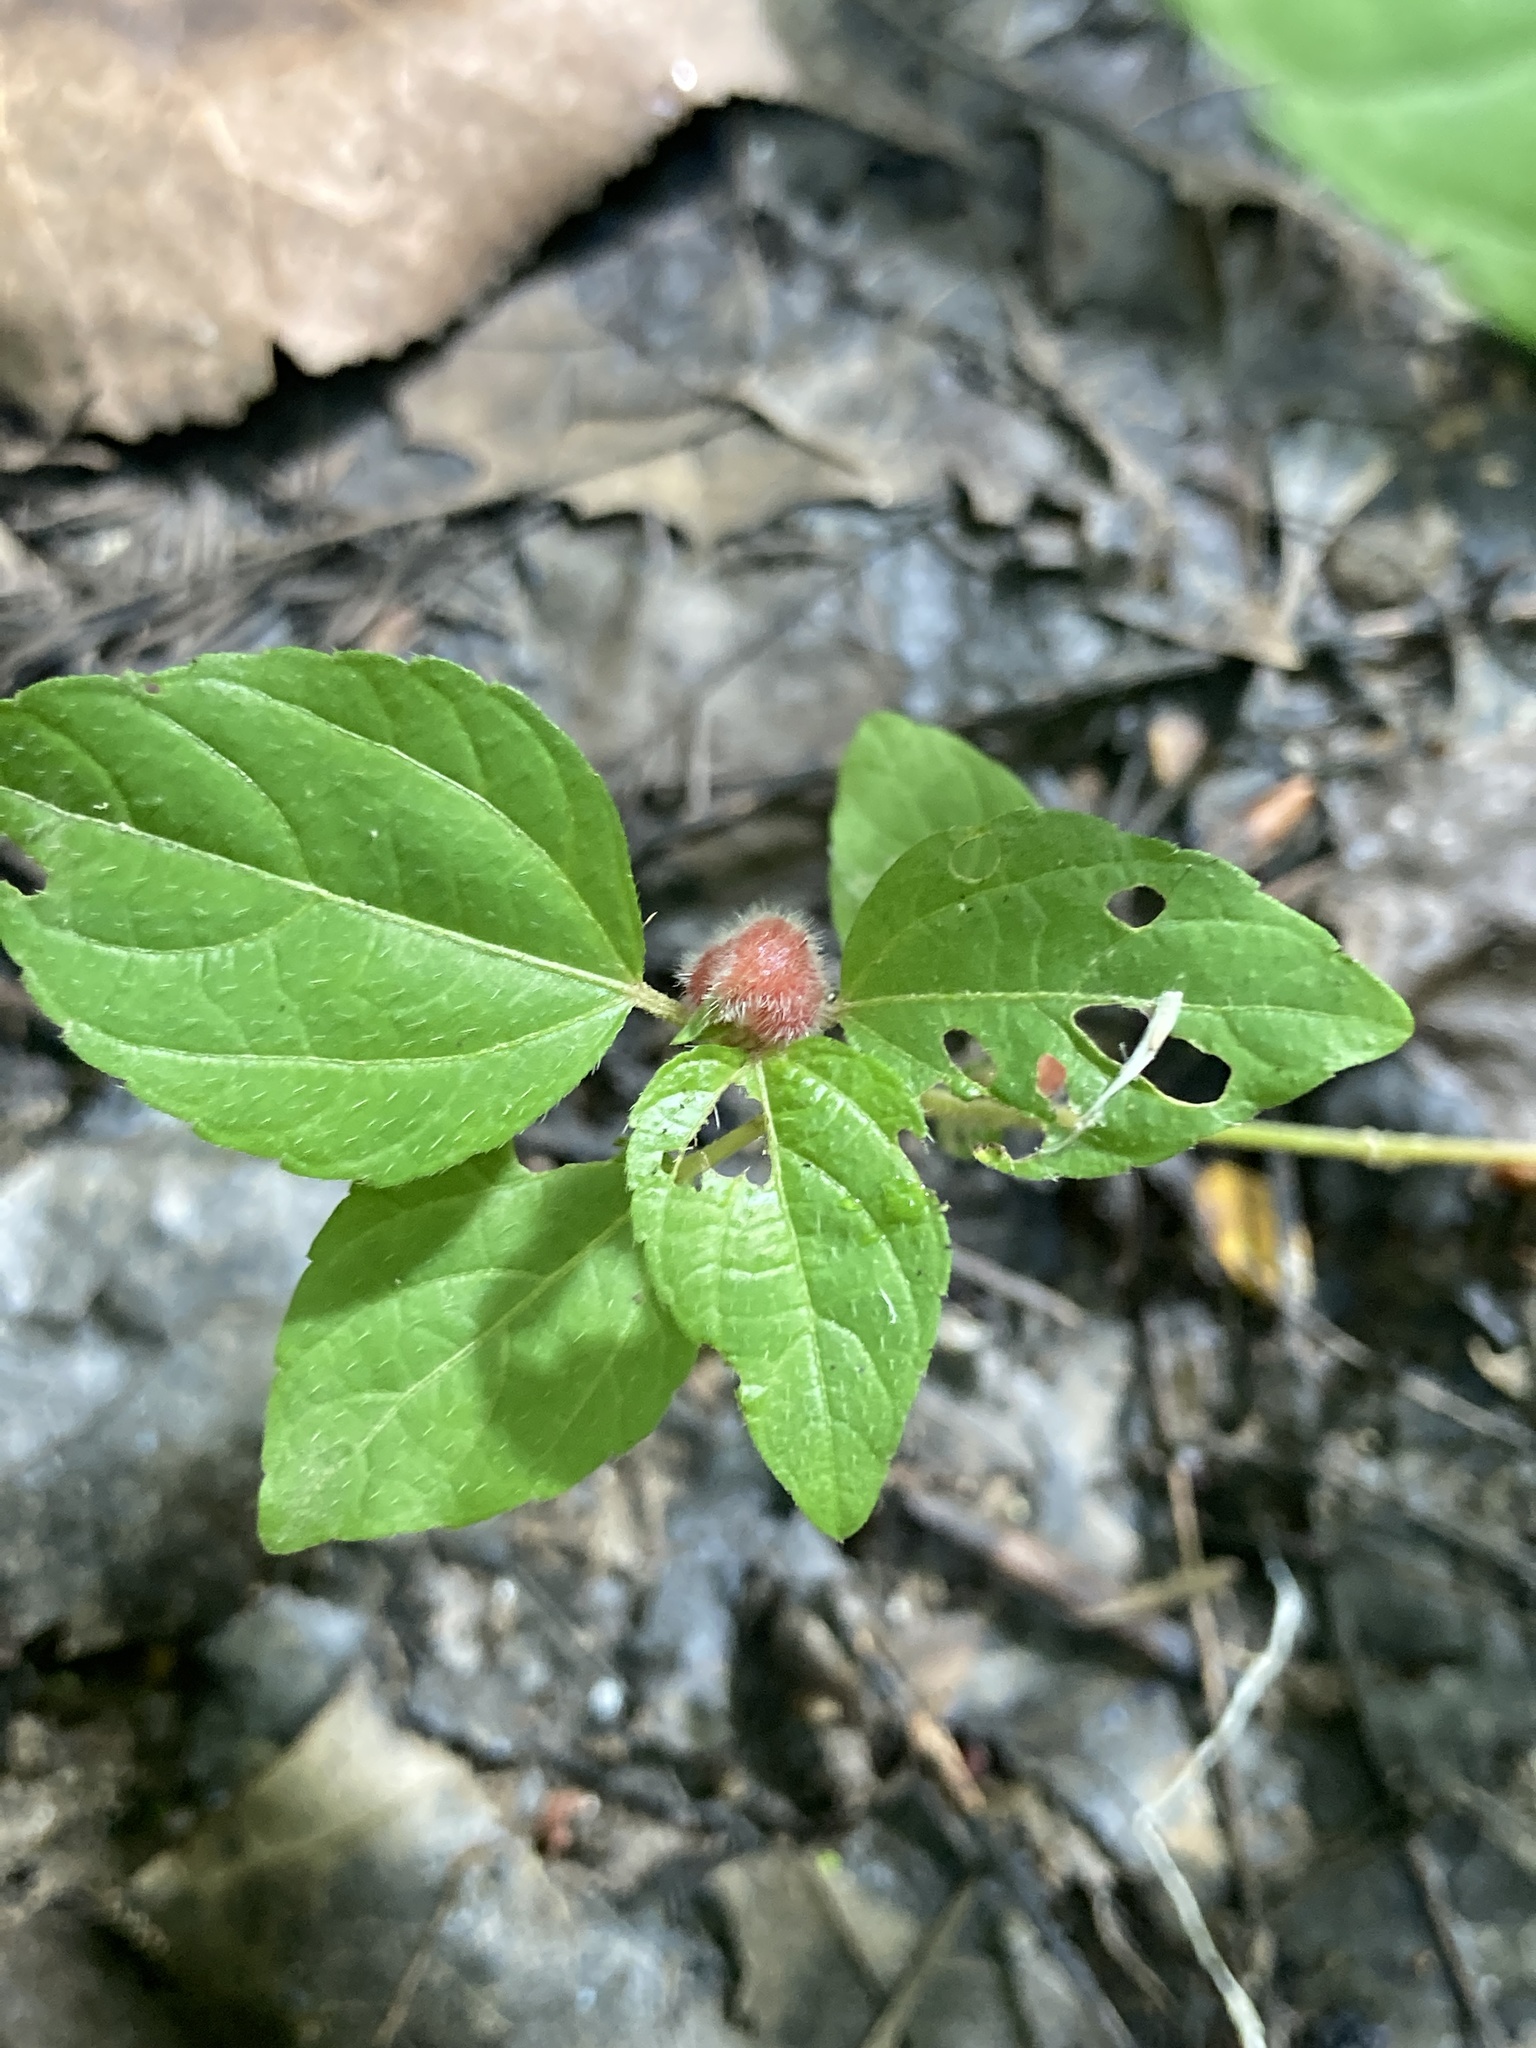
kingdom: Animalia
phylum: Arthropoda
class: Insecta
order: Diptera
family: Cecidomyiidae
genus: Resseliella
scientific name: Resseliella globosa
